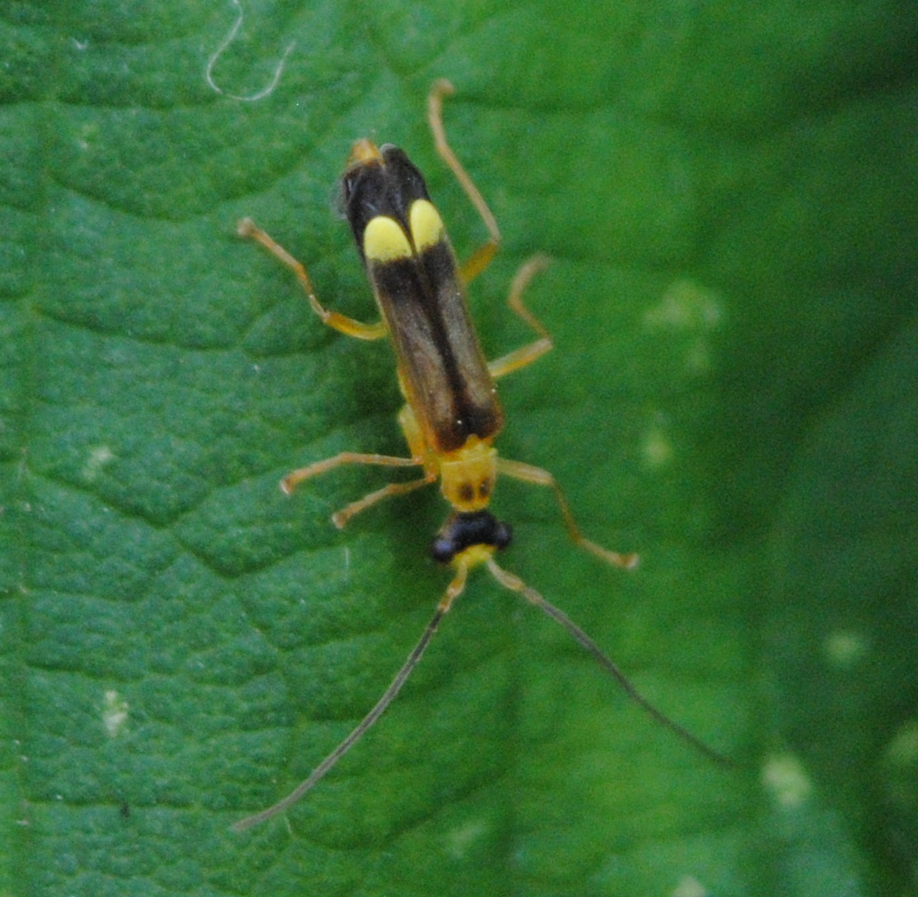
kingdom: Animalia
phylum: Arthropoda
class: Insecta
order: Coleoptera
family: Cantharidae
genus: Malthinus
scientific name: Malthinus flaveolus
